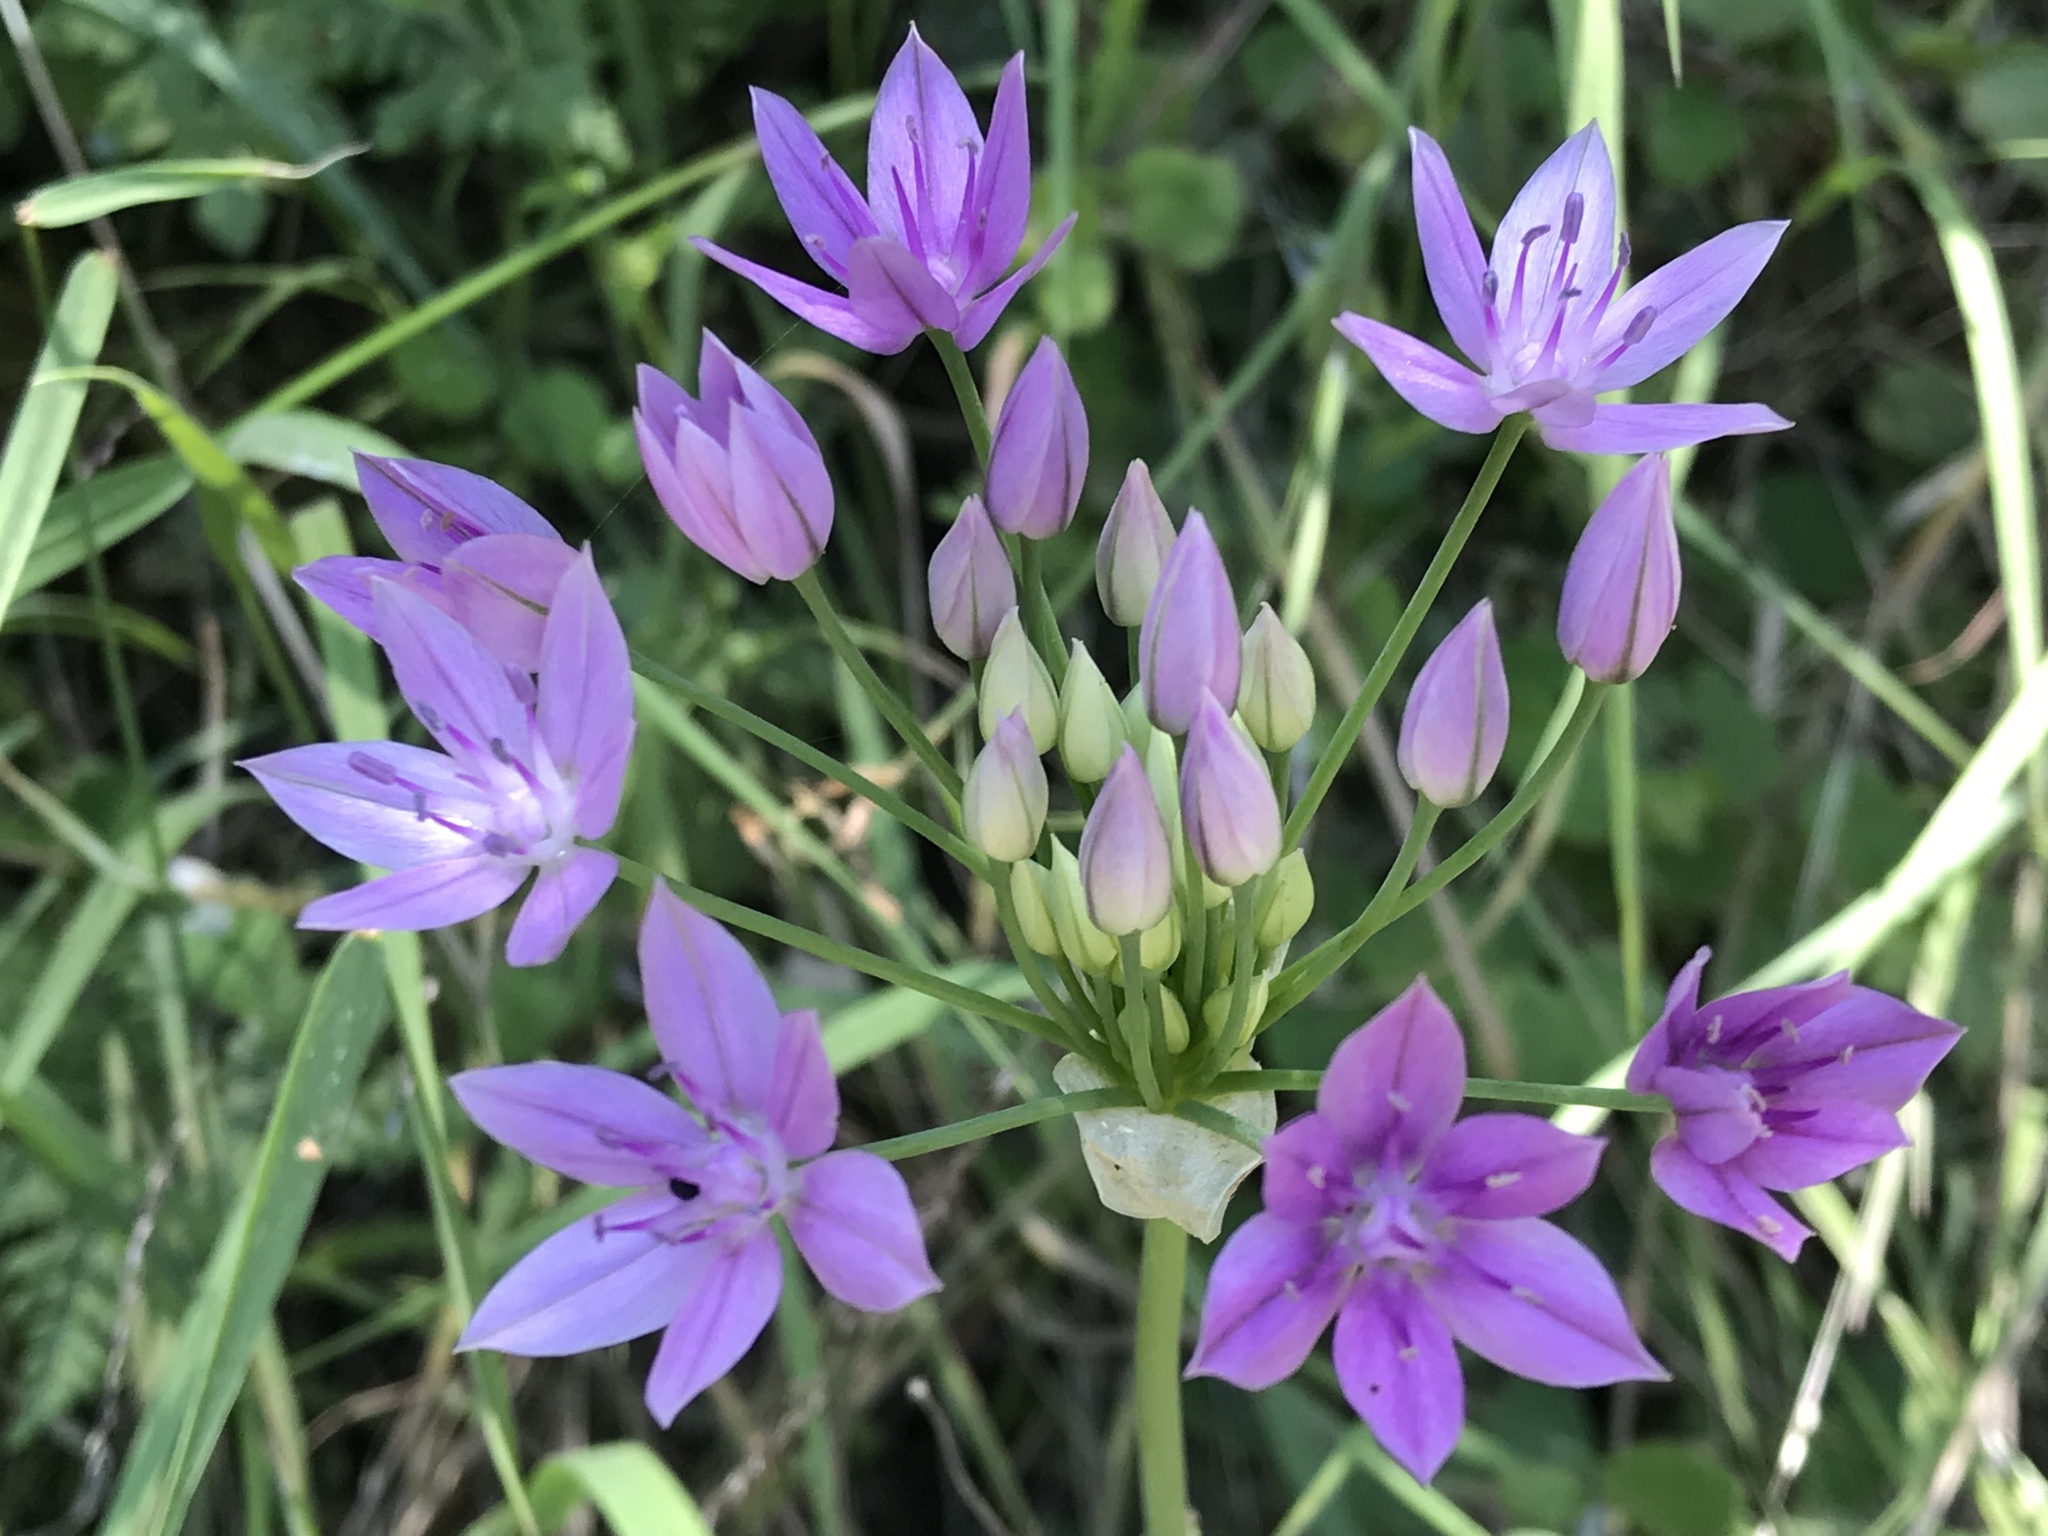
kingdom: Plantae
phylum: Tracheophyta
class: Liliopsida
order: Asparagales
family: Amaryllidaceae
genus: Allium
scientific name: Allium unifolium
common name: American garlic
